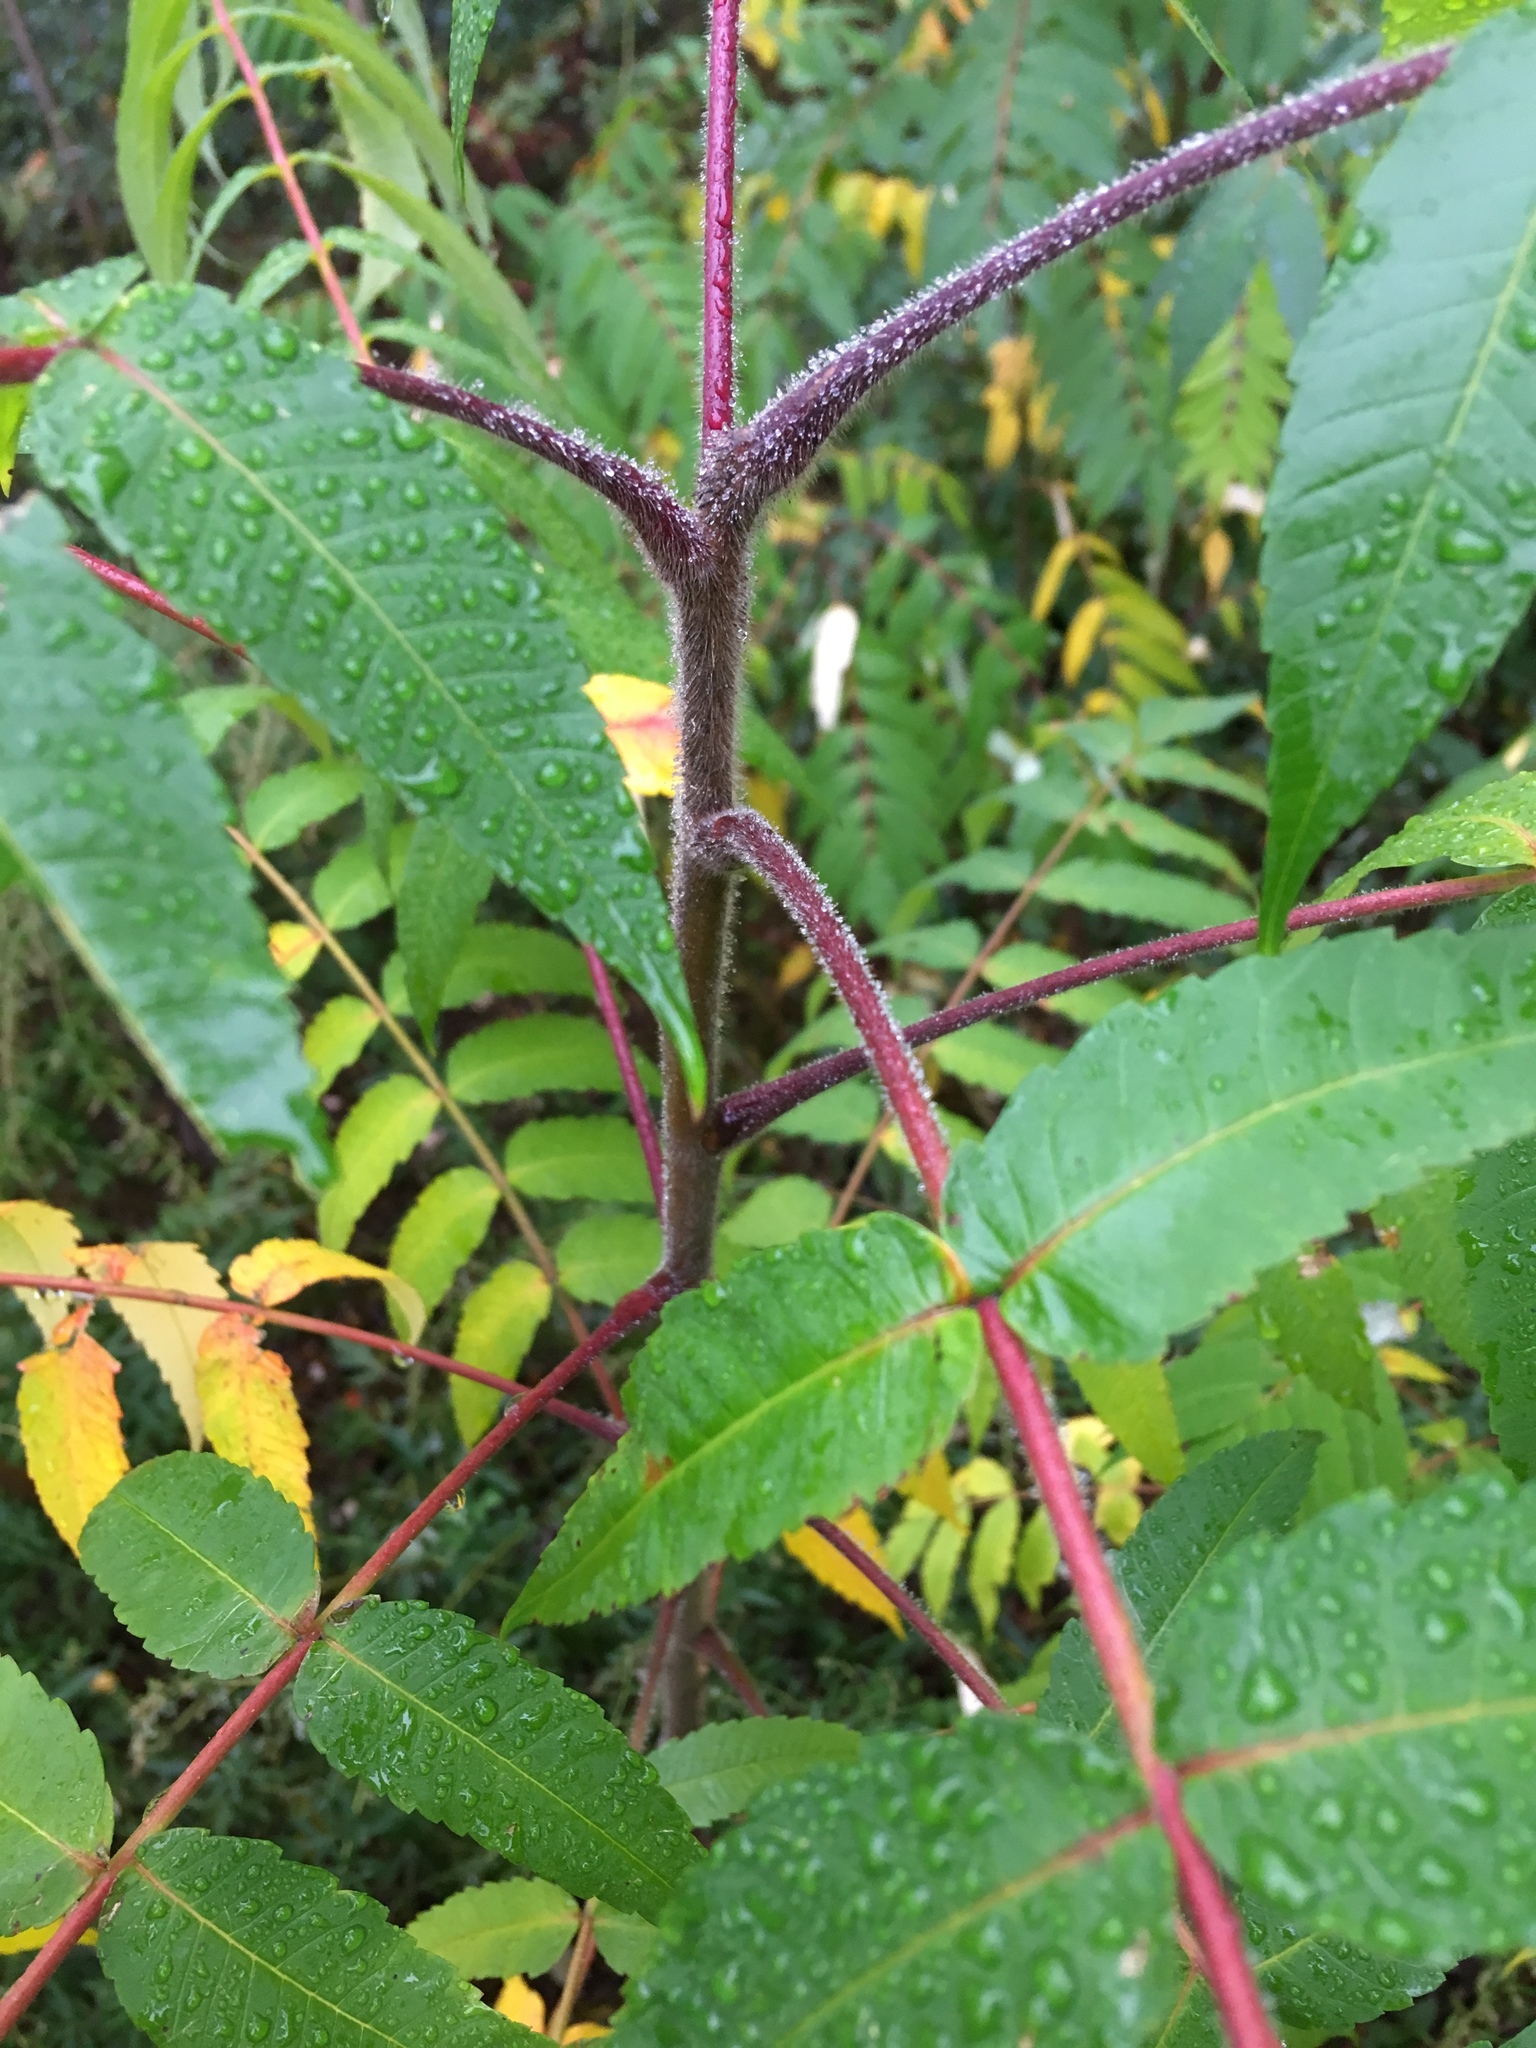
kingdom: Plantae
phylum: Tracheophyta
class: Magnoliopsida
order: Sapindales
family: Anacardiaceae
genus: Rhus
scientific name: Rhus typhina
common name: Staghorn sumac
